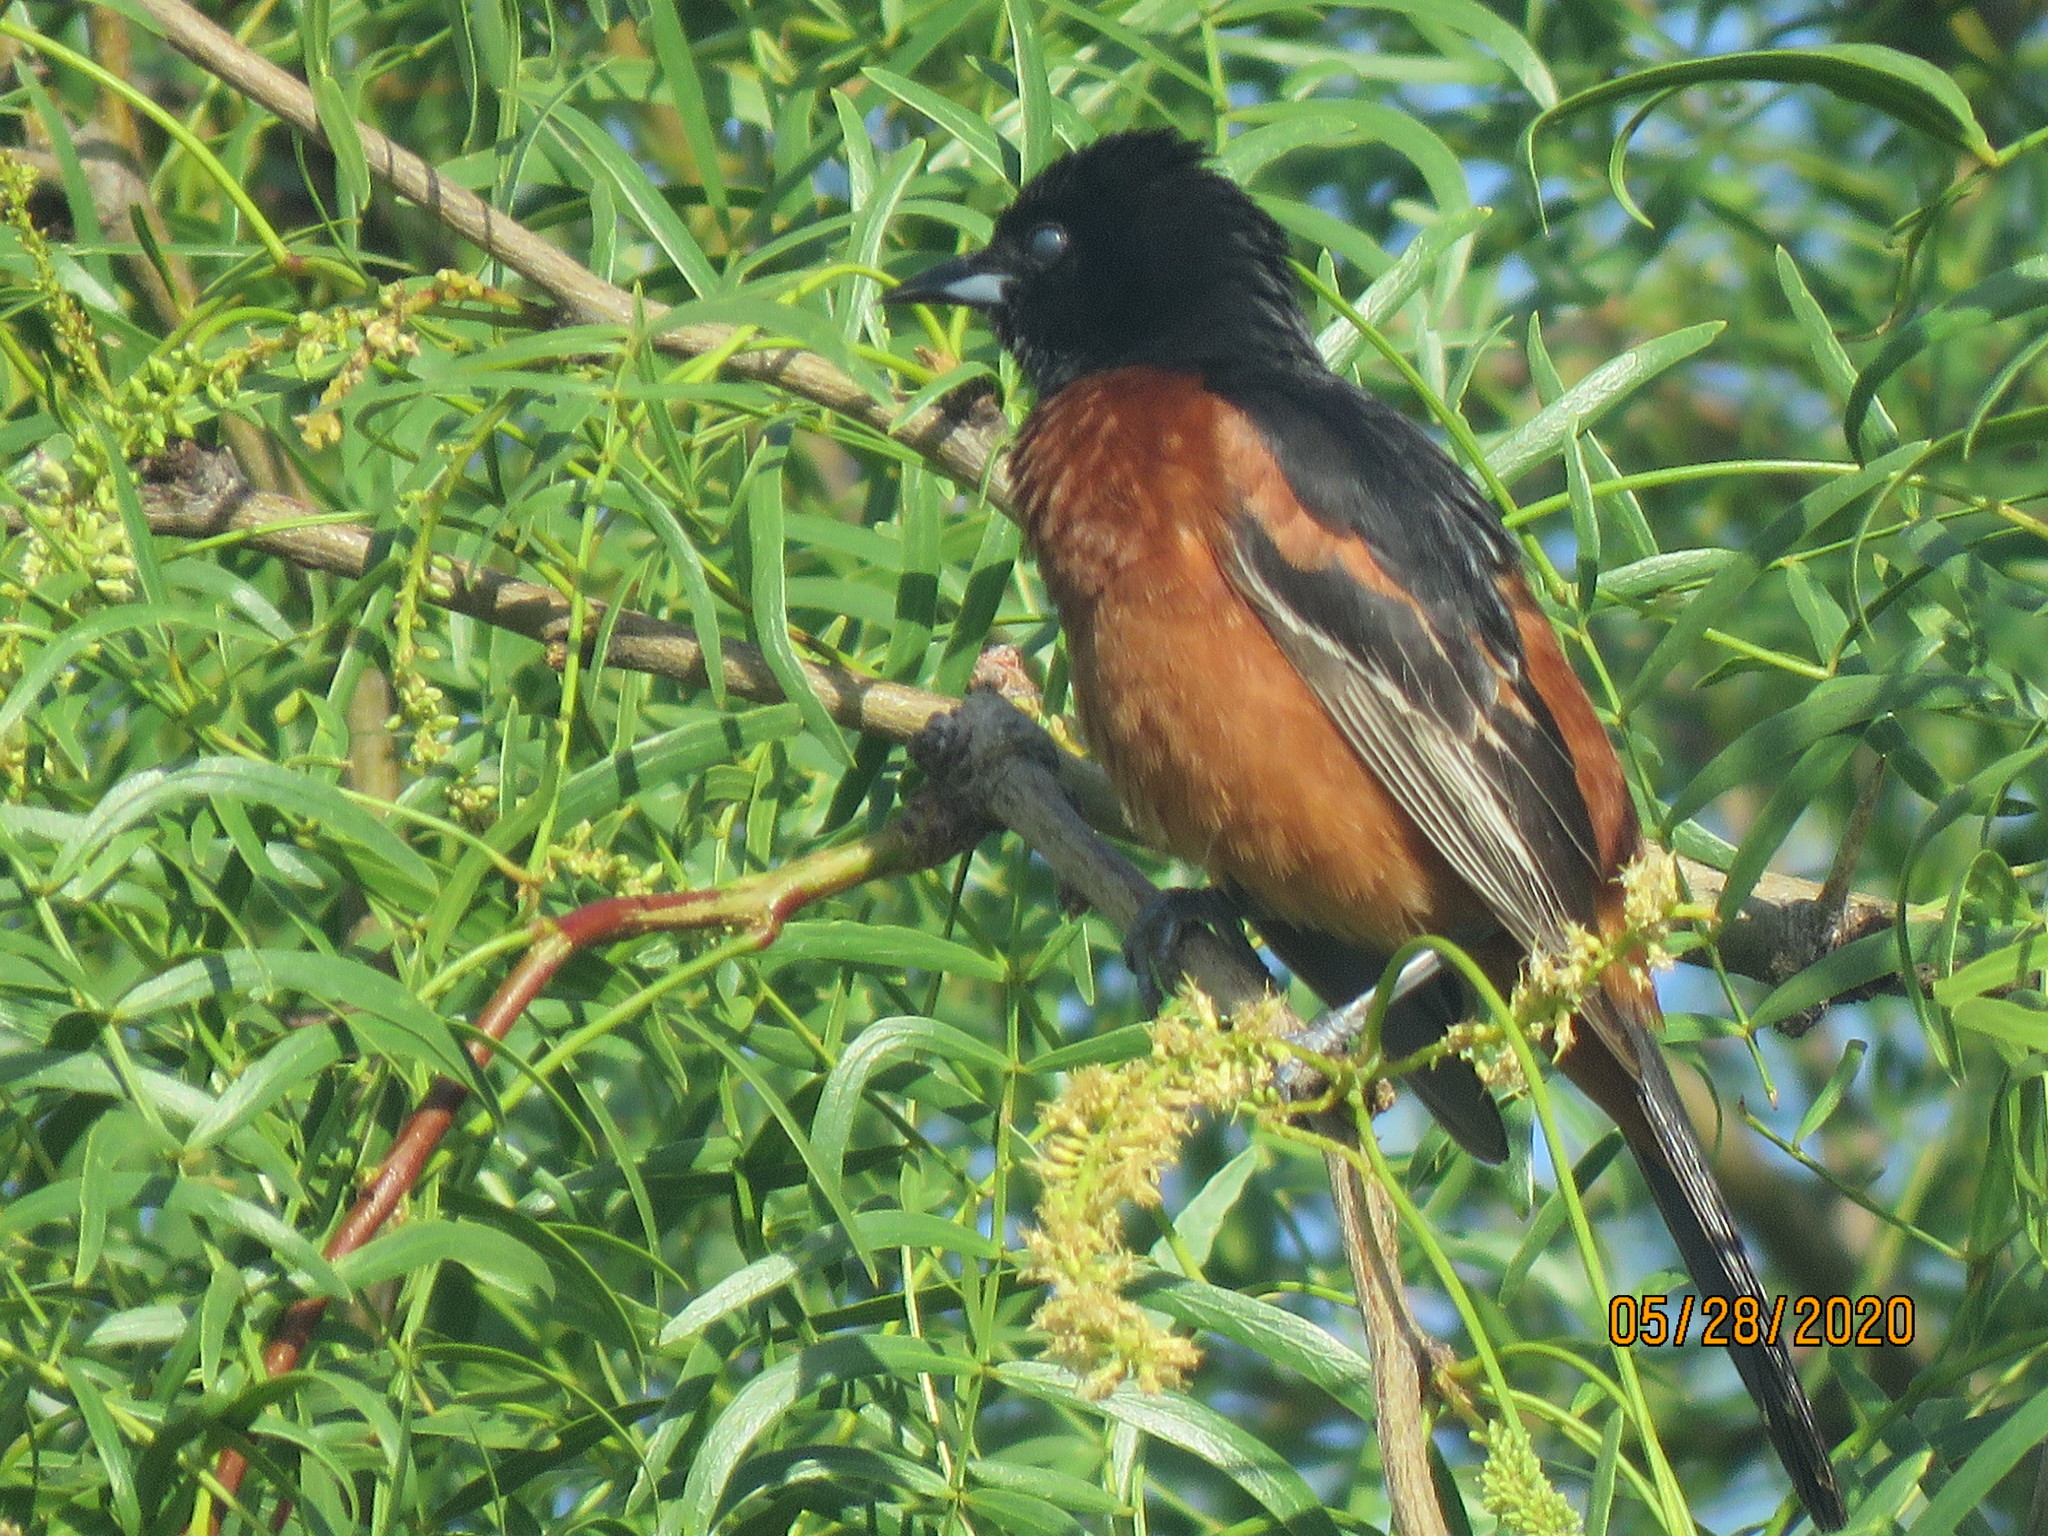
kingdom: Animalia
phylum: Chordata
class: Aves
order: Passeriformes
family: Icteridae
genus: Icterus
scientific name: Icterus spurius
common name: Orchard oriole
